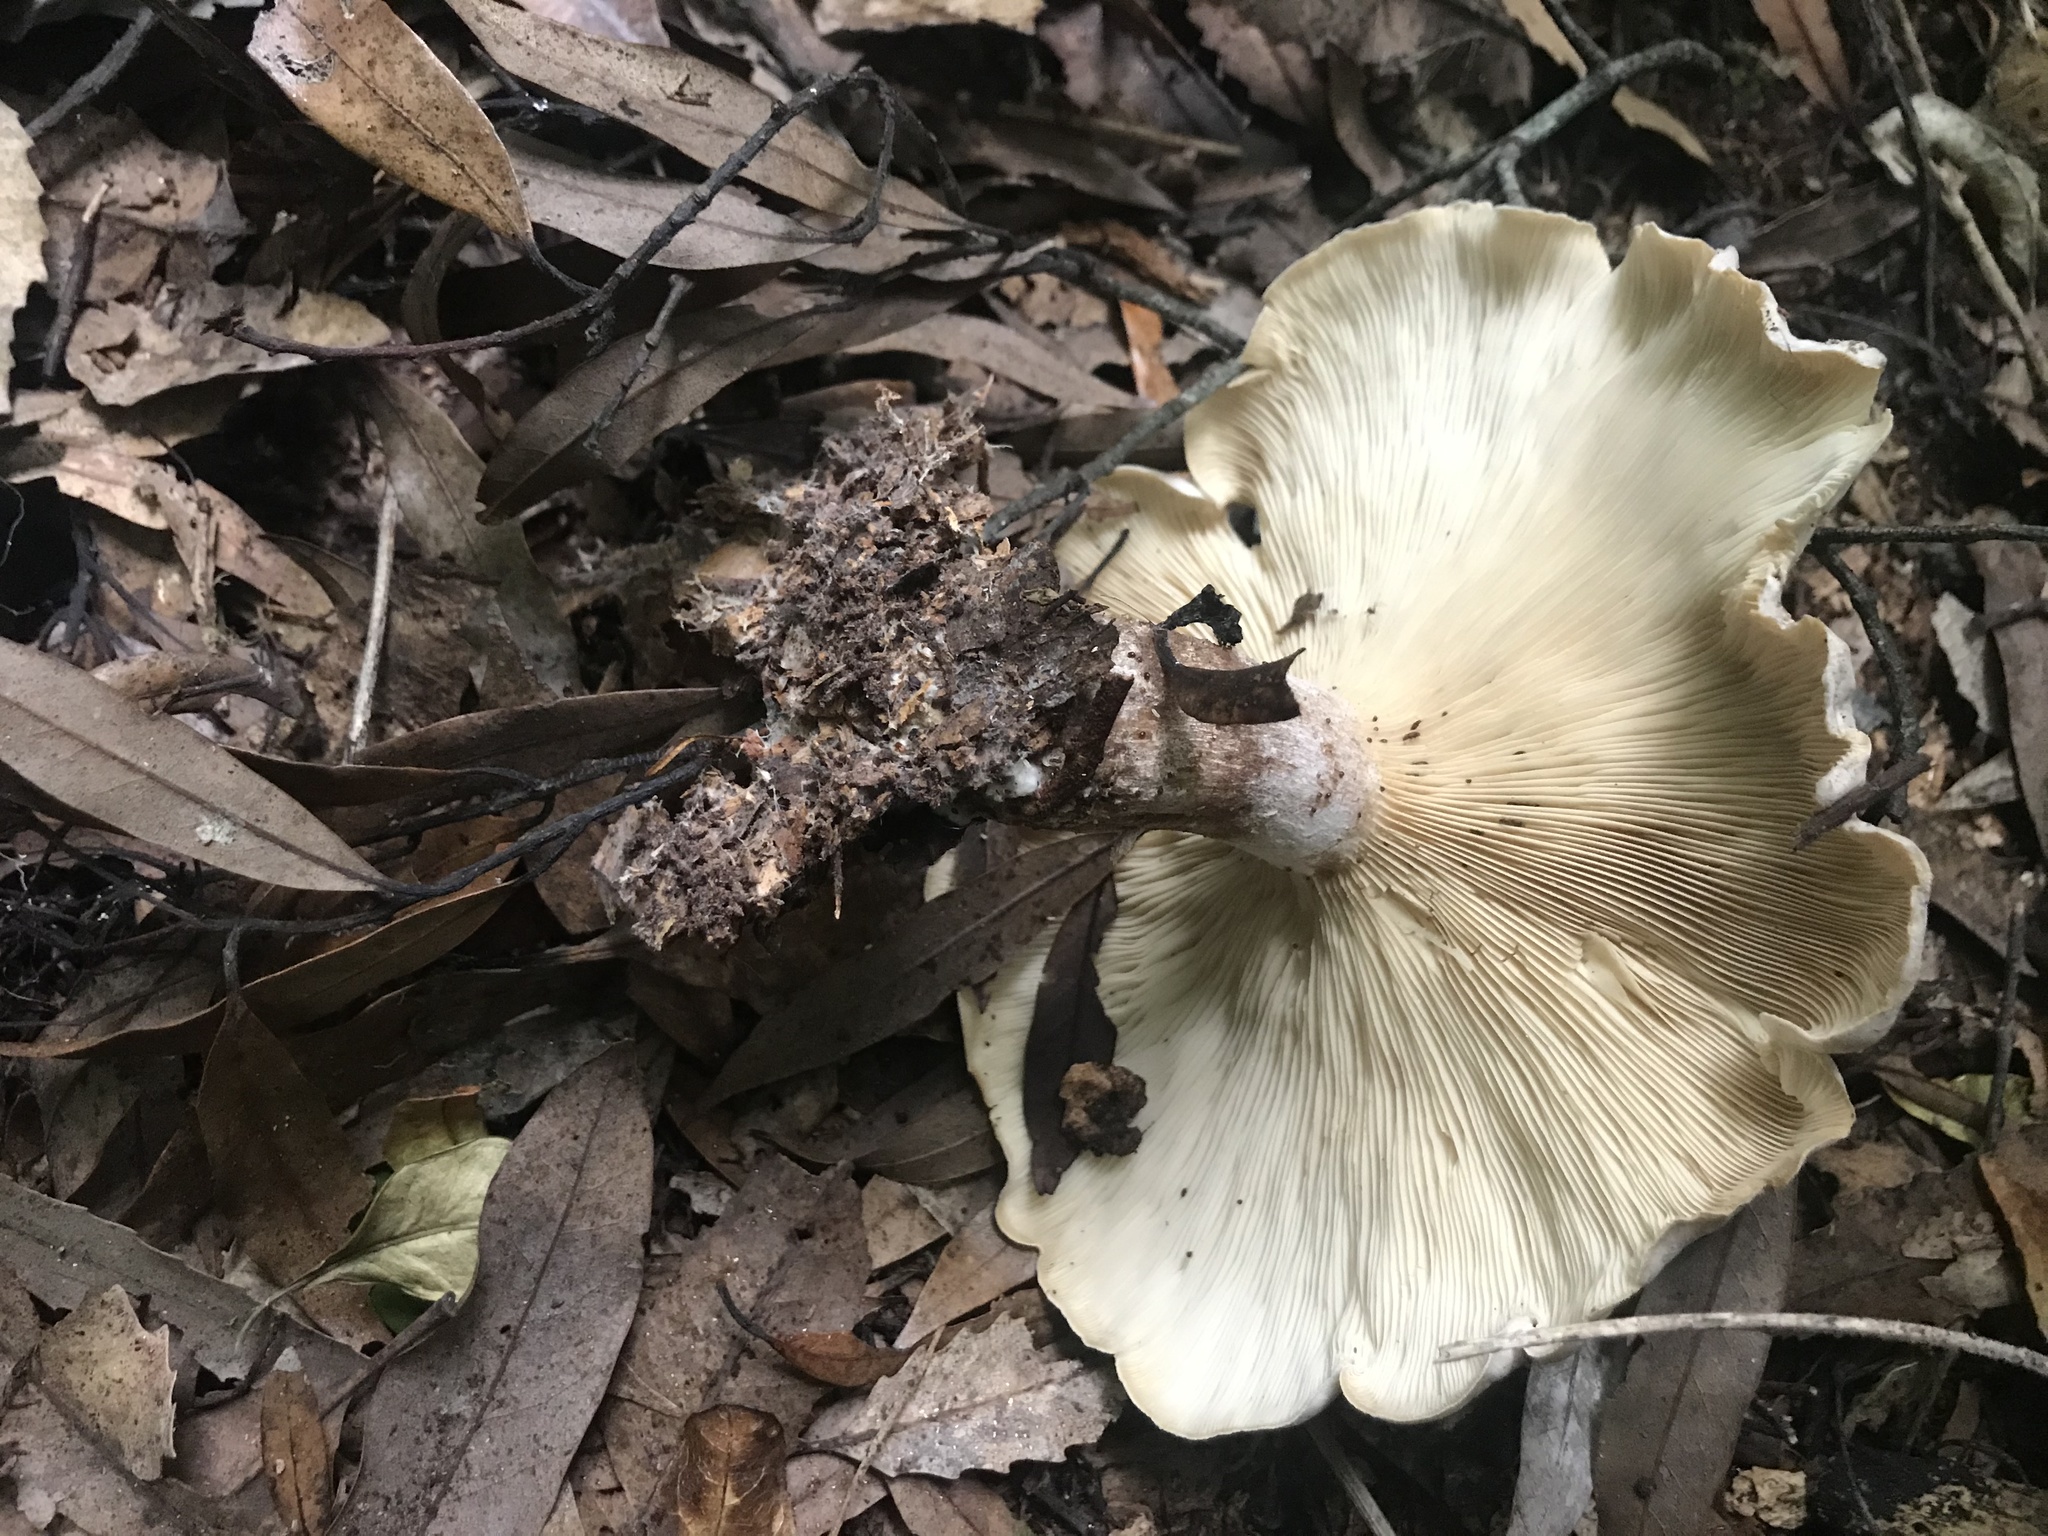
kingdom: Fungi
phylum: Basidiomycota
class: Agaricomycetes
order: Agaricales
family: Tricholomataceae
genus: Clitocybe
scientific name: Clitocybe nebularis
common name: Clouded agaric
